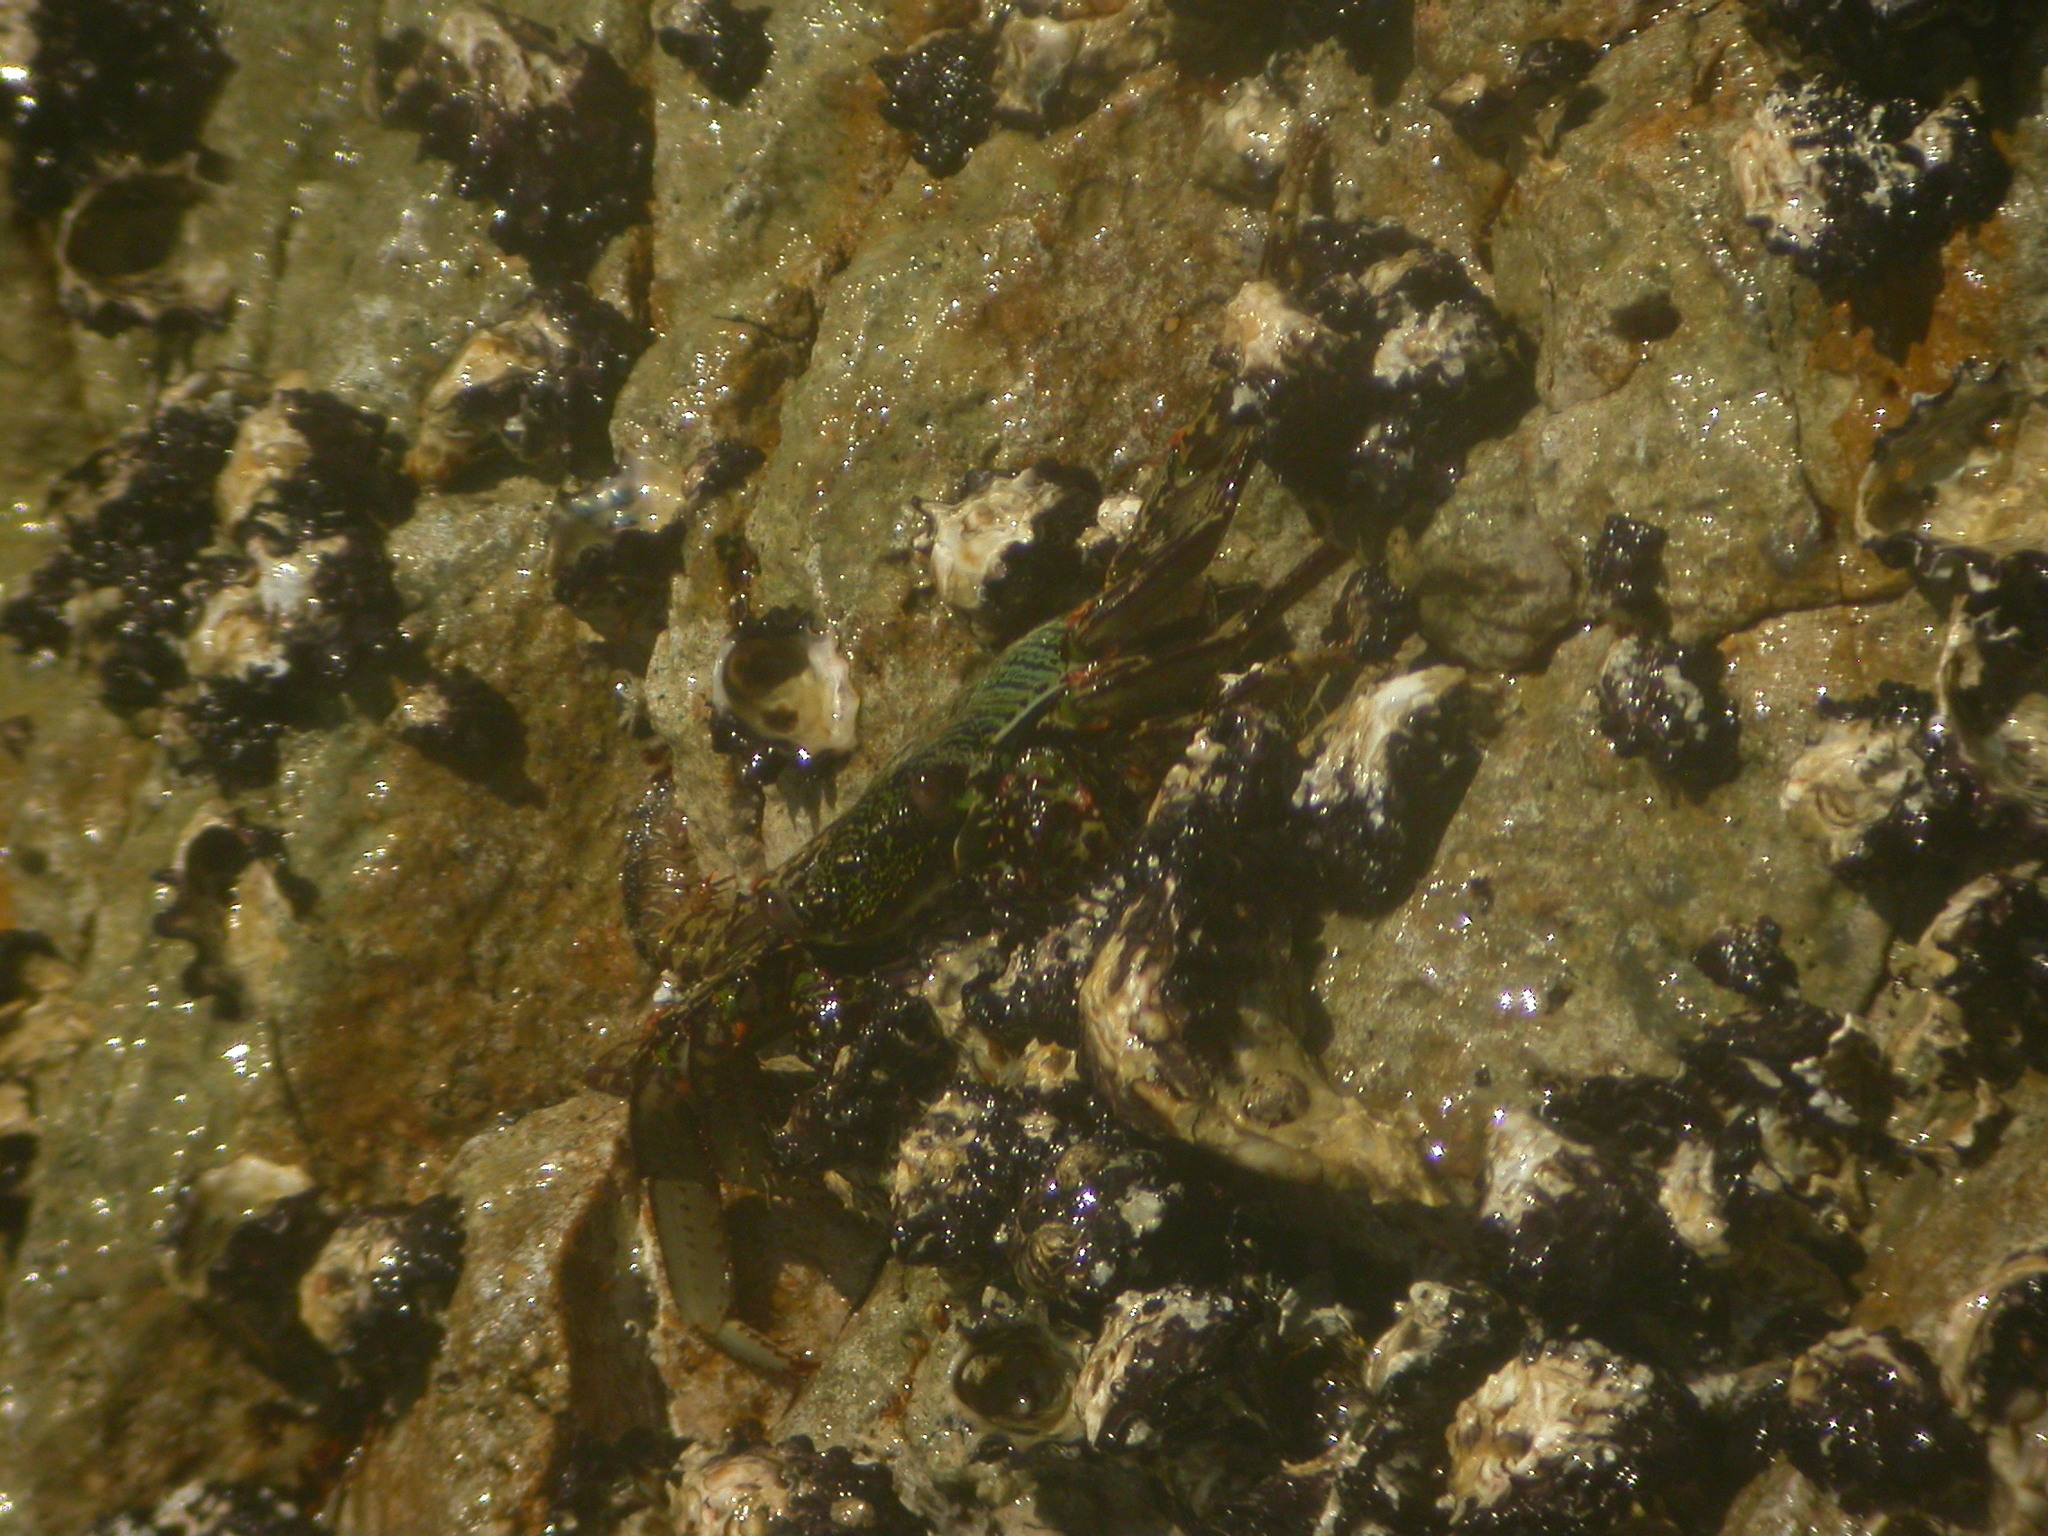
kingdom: Animalia
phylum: Arthropoda
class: Malacostraca
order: Decapoda
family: Grapsidae
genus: Grapsus
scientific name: Grapsus albolineatus
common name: Mottled lightfoot crab
